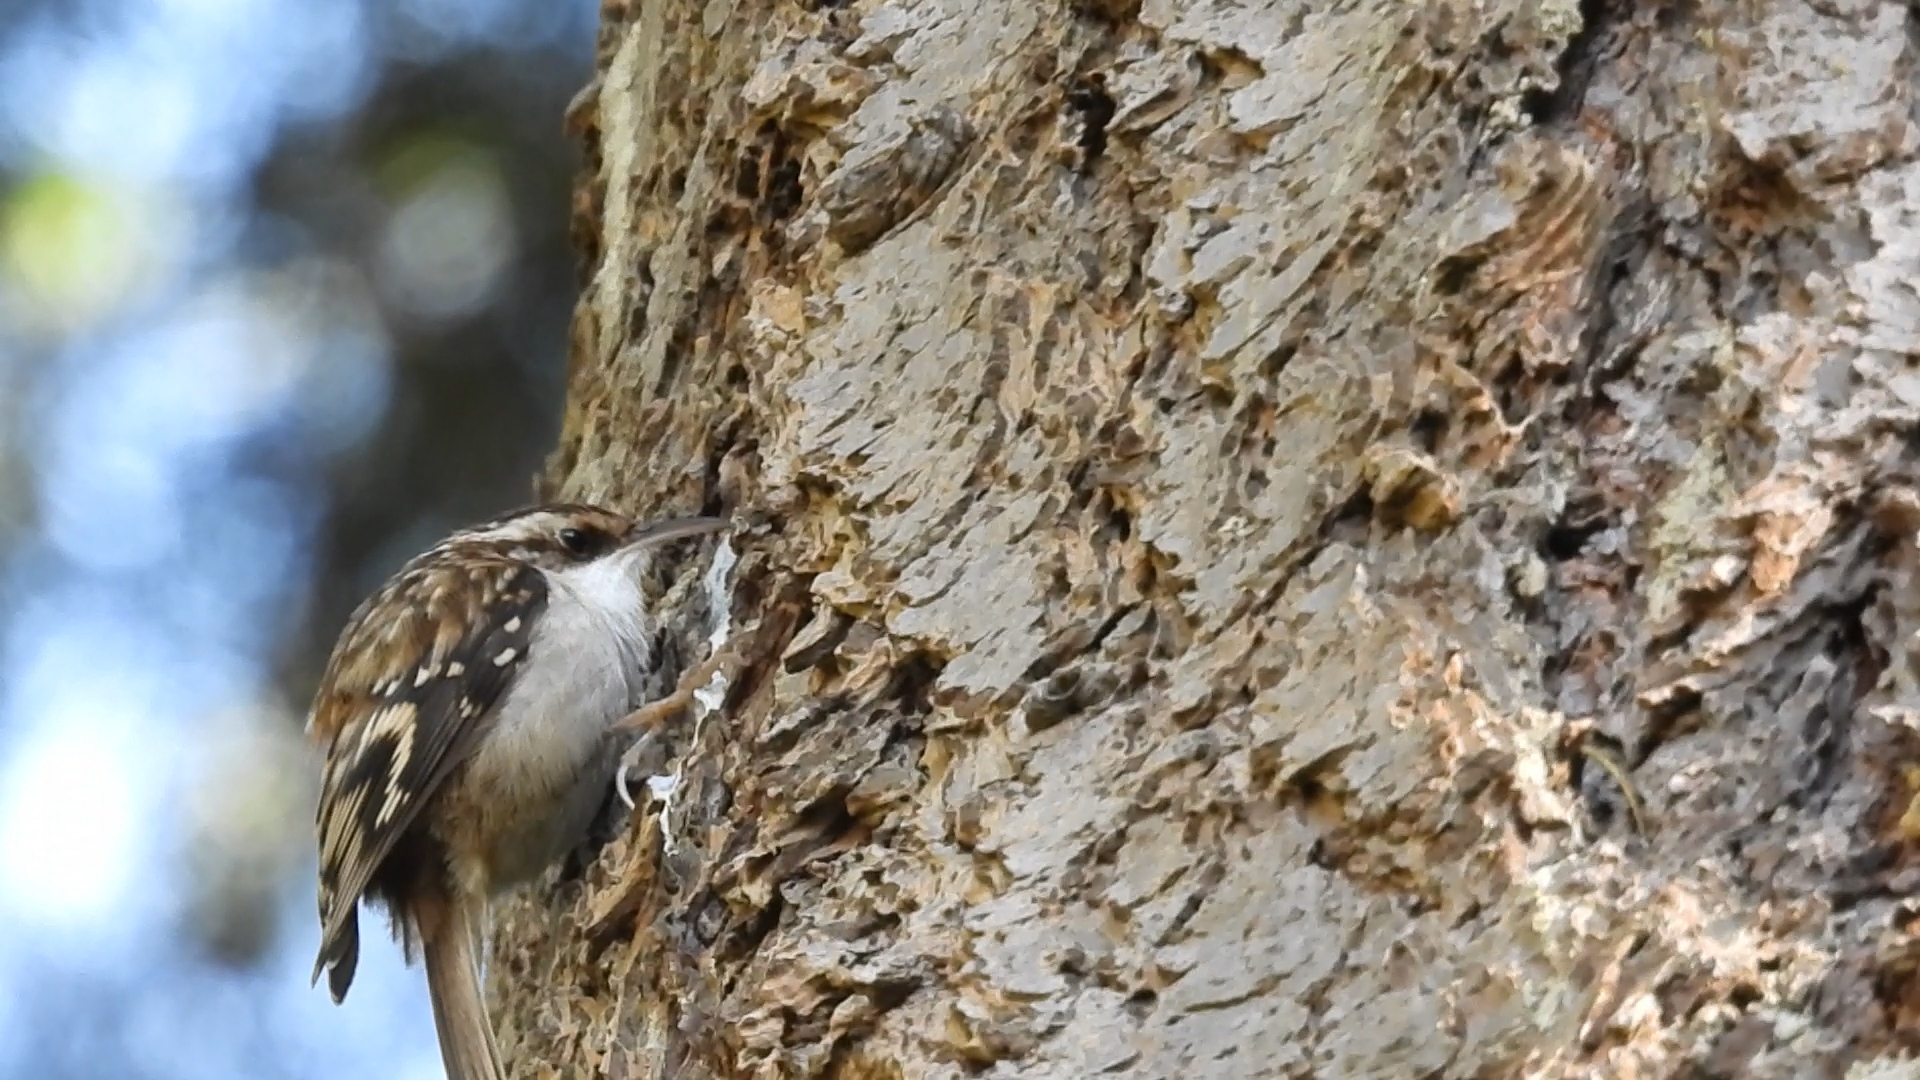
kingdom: Animalia
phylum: Chordata
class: Aves
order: Passeriformes
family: Certhiidae
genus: Certhia
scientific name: Certhia americana
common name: Brown creeper
